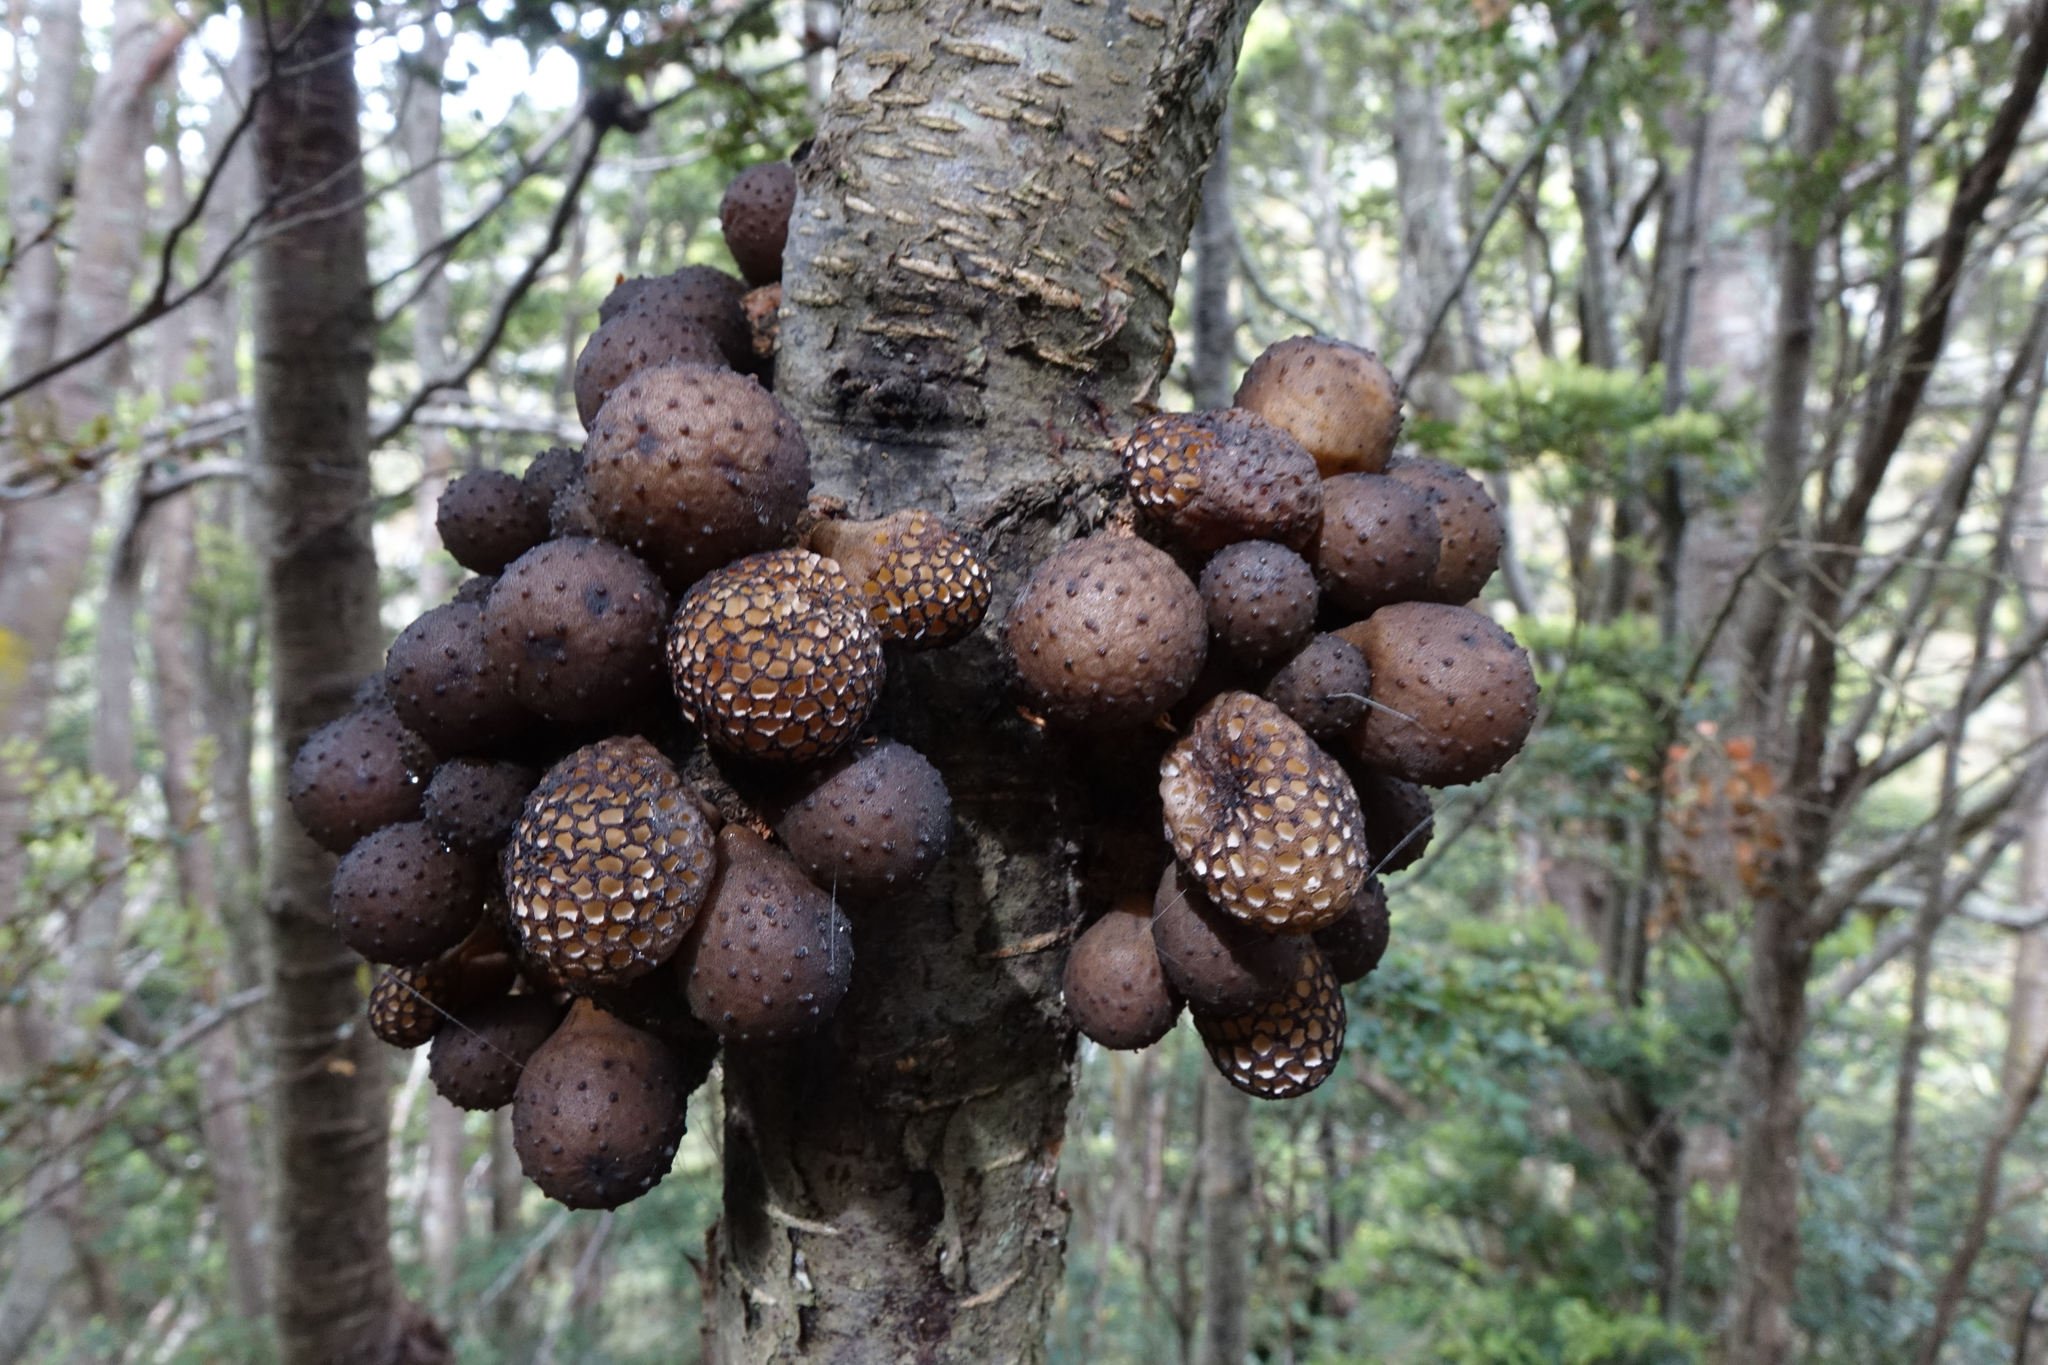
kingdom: Fungi
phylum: Ascomycota
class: Leotiomycetes
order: Cyttariales
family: Cyttariaceae
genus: Cyttaria
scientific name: Cyttaria nigra
